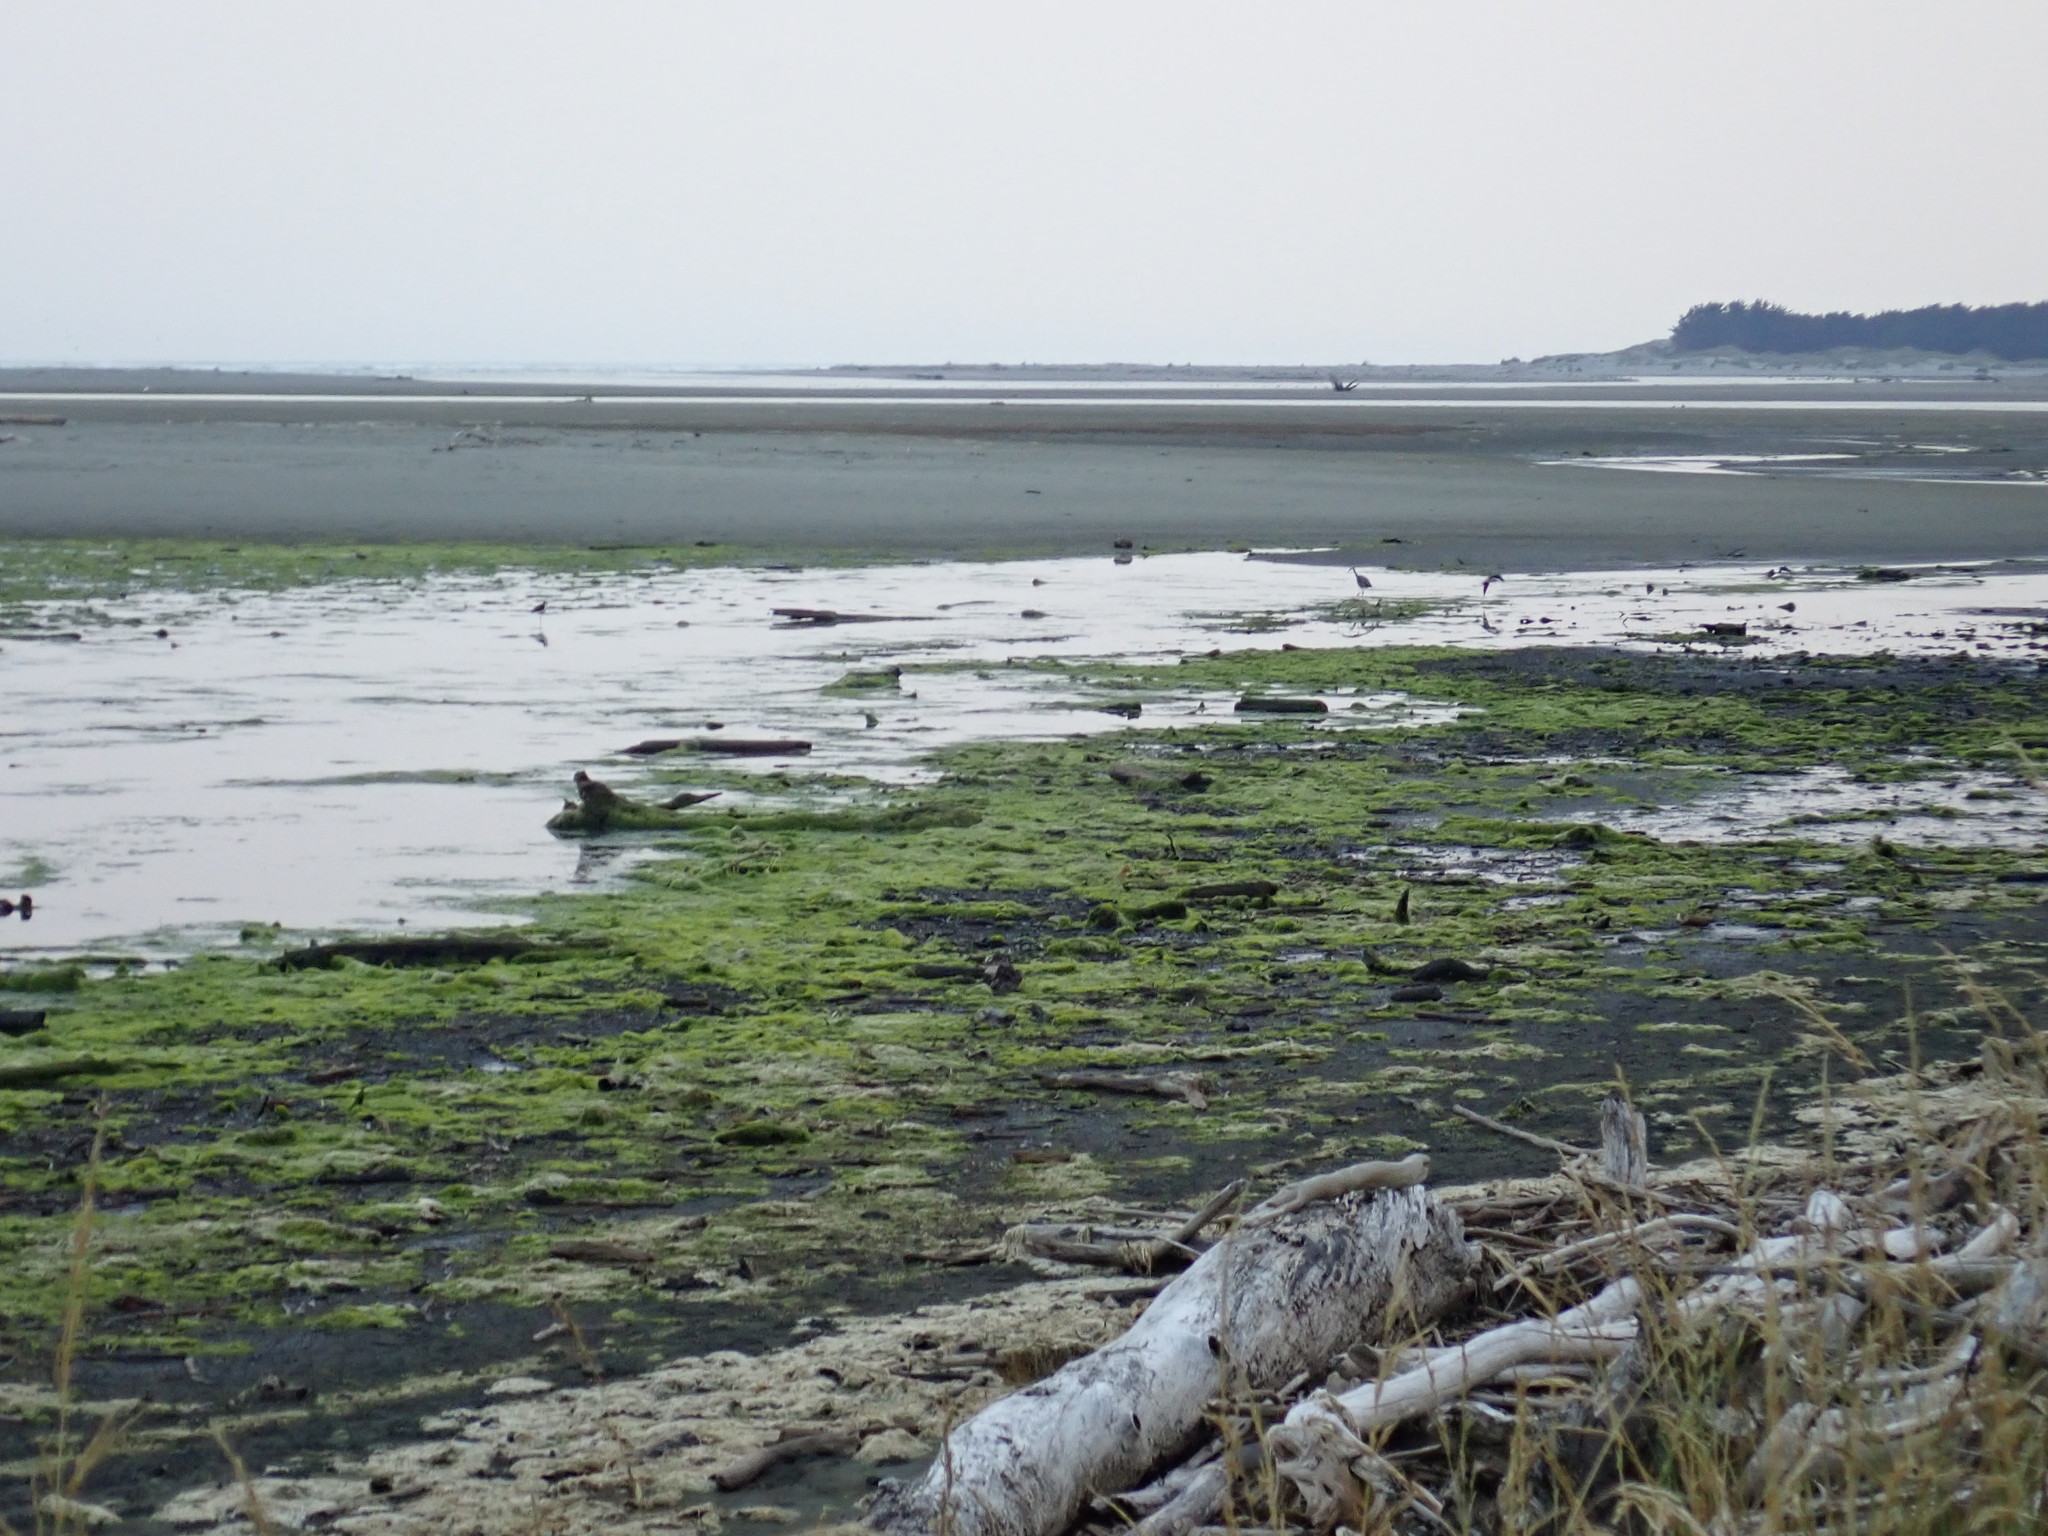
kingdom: Animalia
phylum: Chordata
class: Aves
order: Pelecaniformes
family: Ardeidae
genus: Egretta
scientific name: Egretta novaehollandiae
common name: White-faced heron
